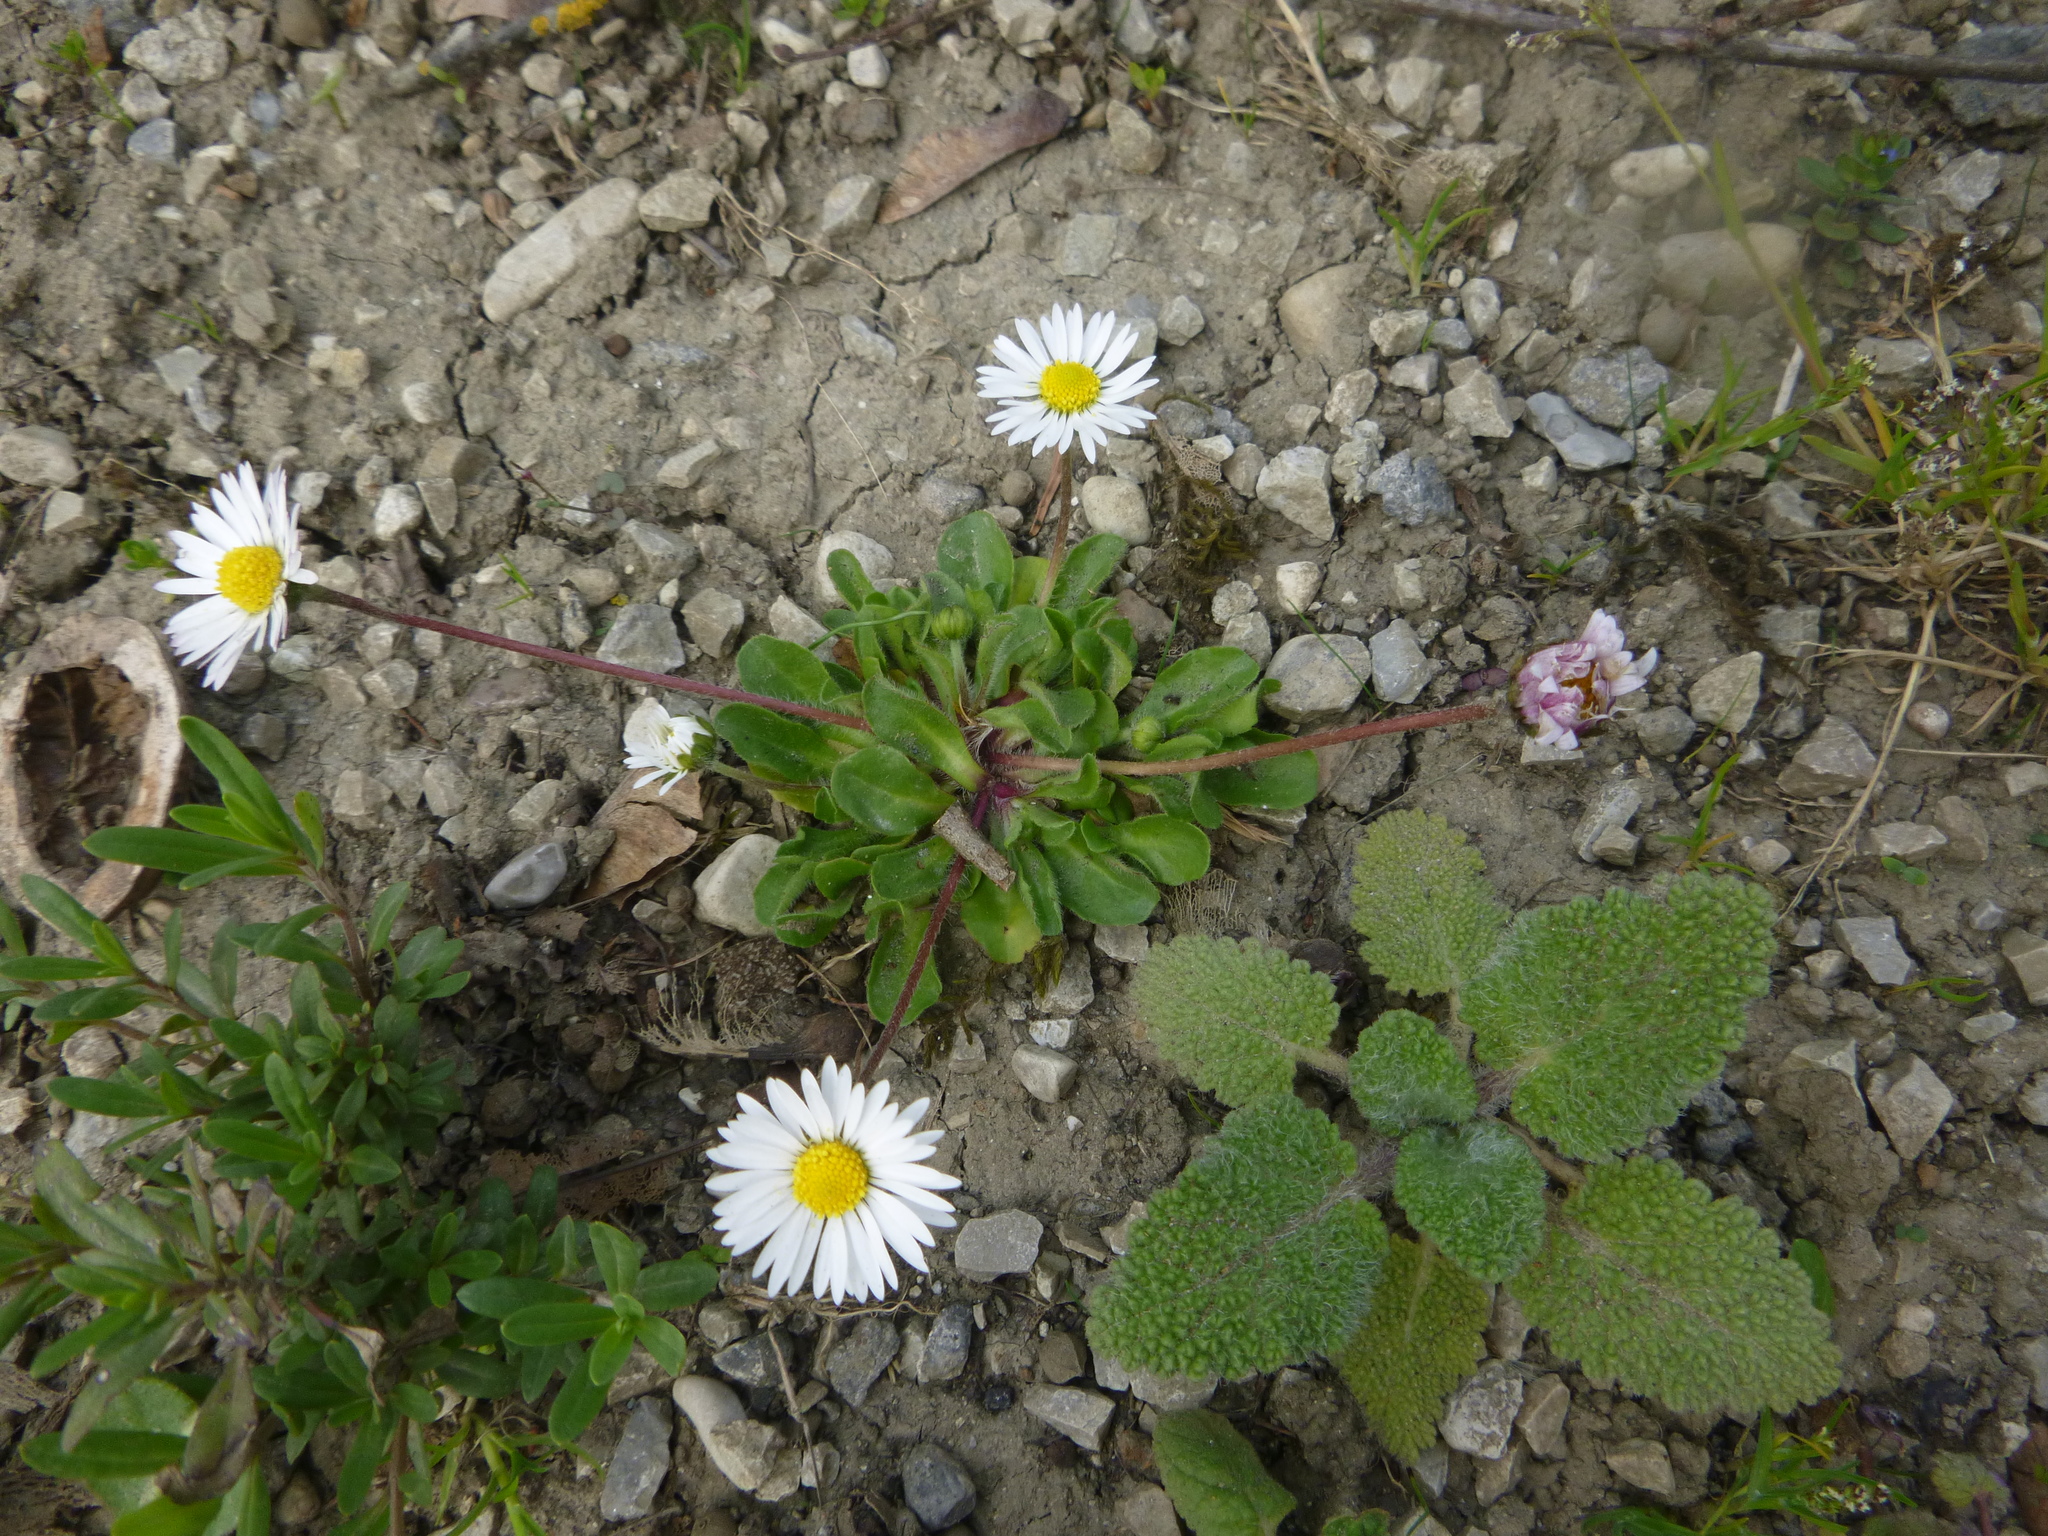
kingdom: Plantae
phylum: Tracheophyta
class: Magnoliopsida
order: Asterales
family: Asteraceae
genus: Bellis
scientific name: Bellis perennis
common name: Lawndaisy
